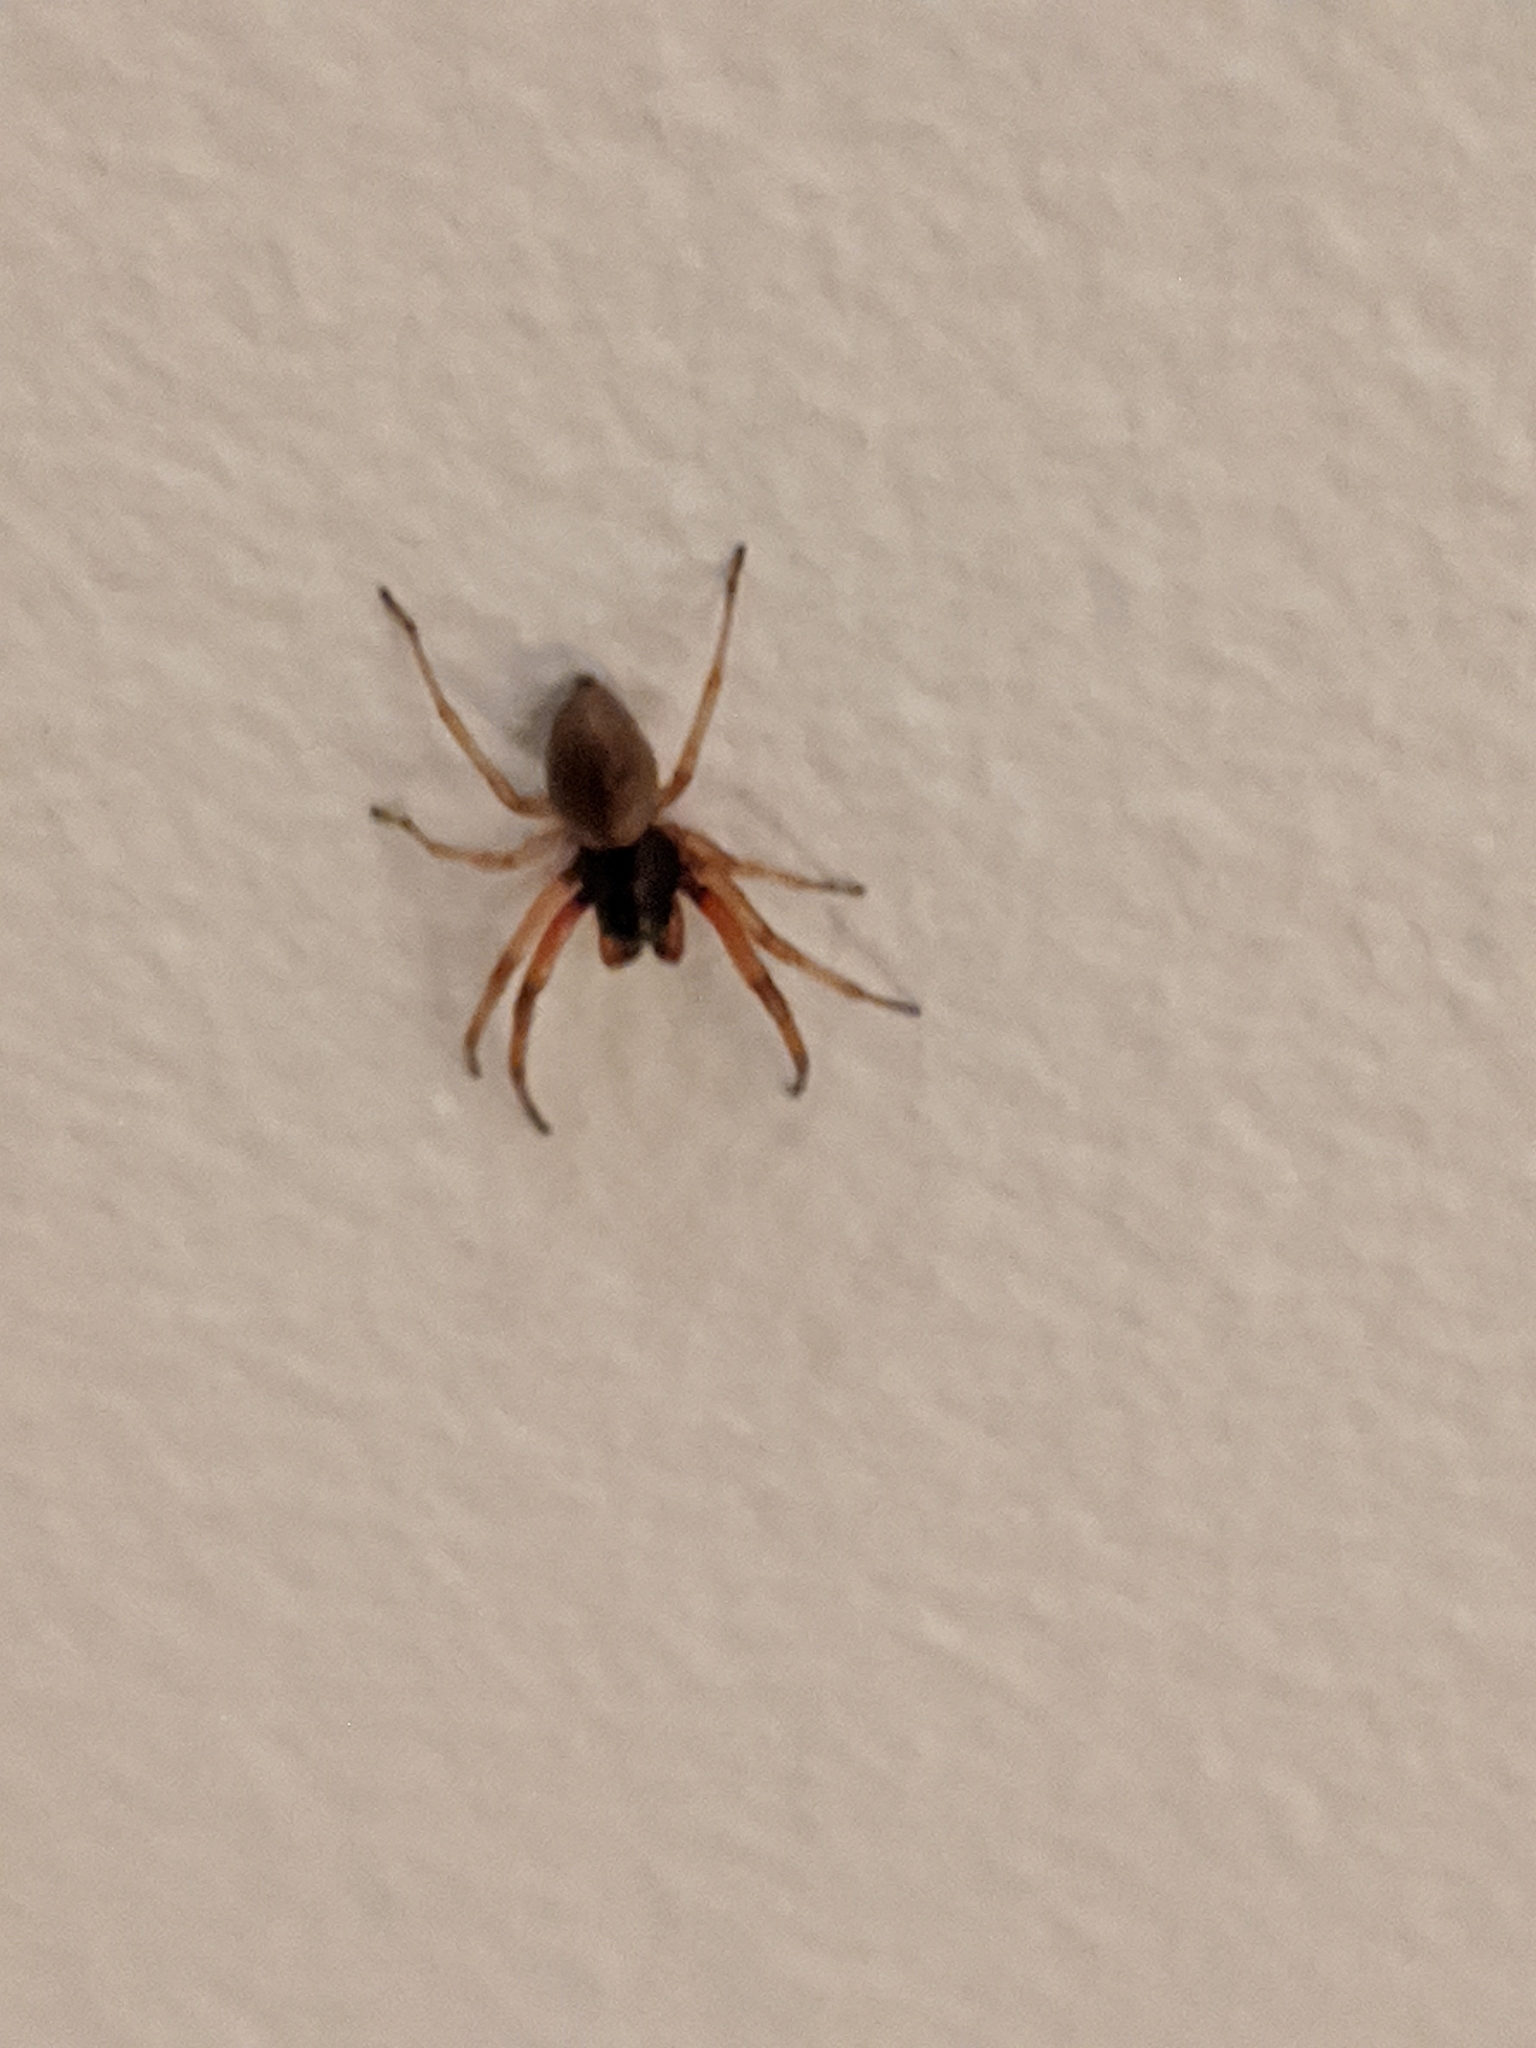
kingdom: Animalia
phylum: Arthropoda
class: Arachnida
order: Araneae
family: Trachelidae
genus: Trachelas
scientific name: Trachelas tranquillus
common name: Broad-faced sac spider
